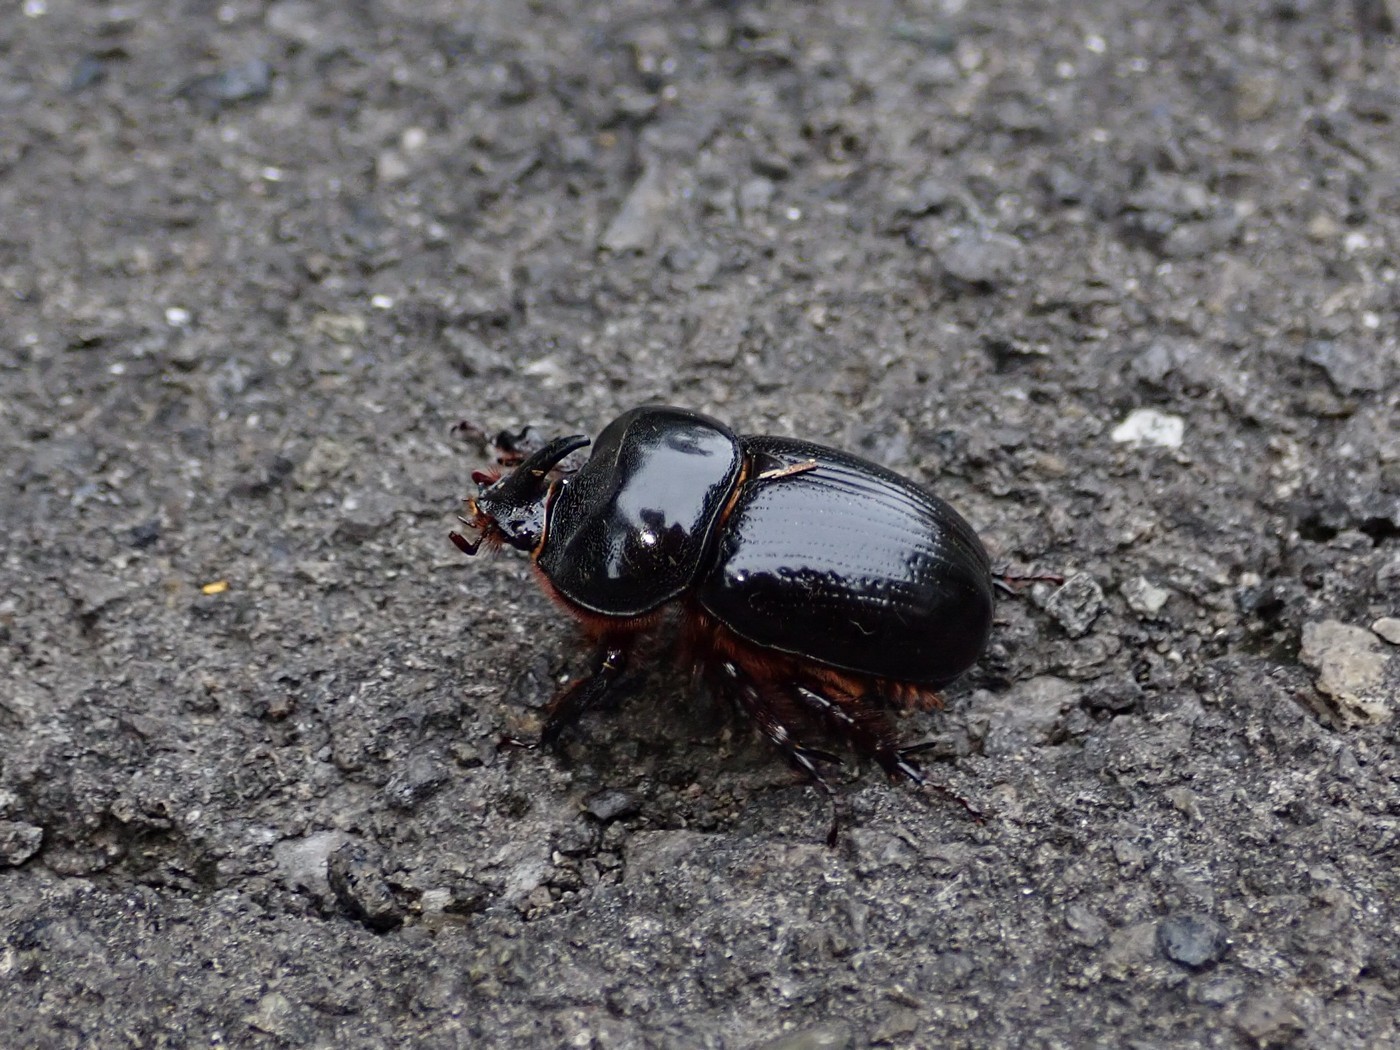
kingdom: Animalia
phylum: Arthropoda
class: Insecta
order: Coleoptera
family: Scarabaeidae
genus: Xyloryctes
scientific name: Xyloryctes jamaicensis
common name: Eastern rhinoceros beetle
